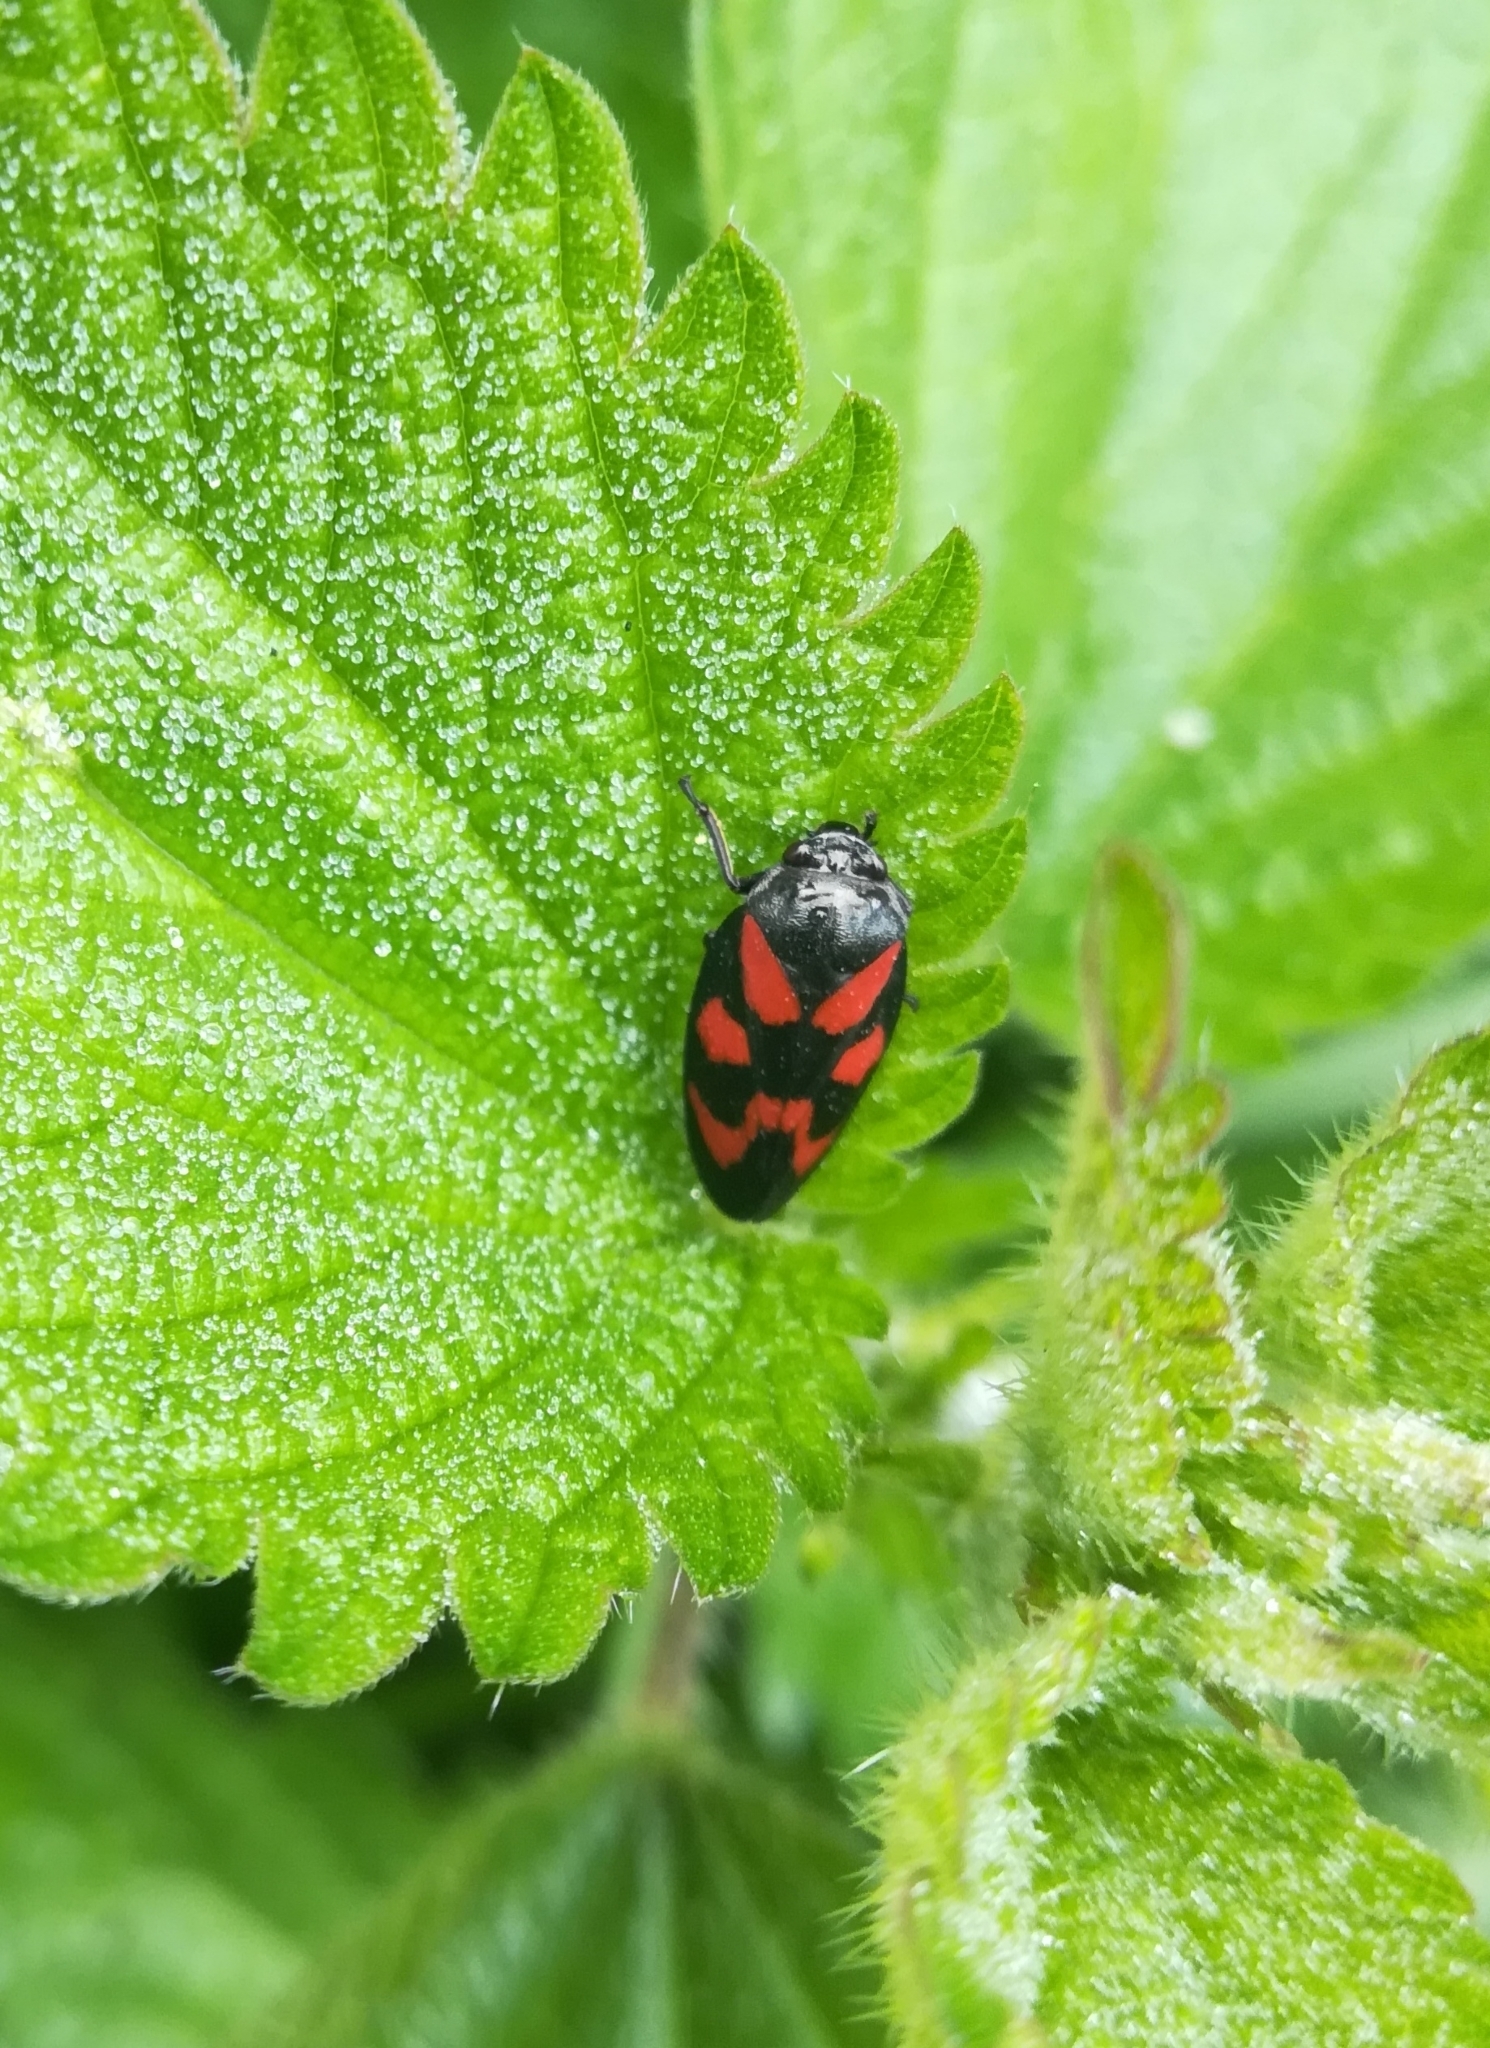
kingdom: Animalia
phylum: Arthropoda
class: Insecta
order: Hemiptera
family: Cercopidae
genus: Cercopis
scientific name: Cercopis vulnerata
